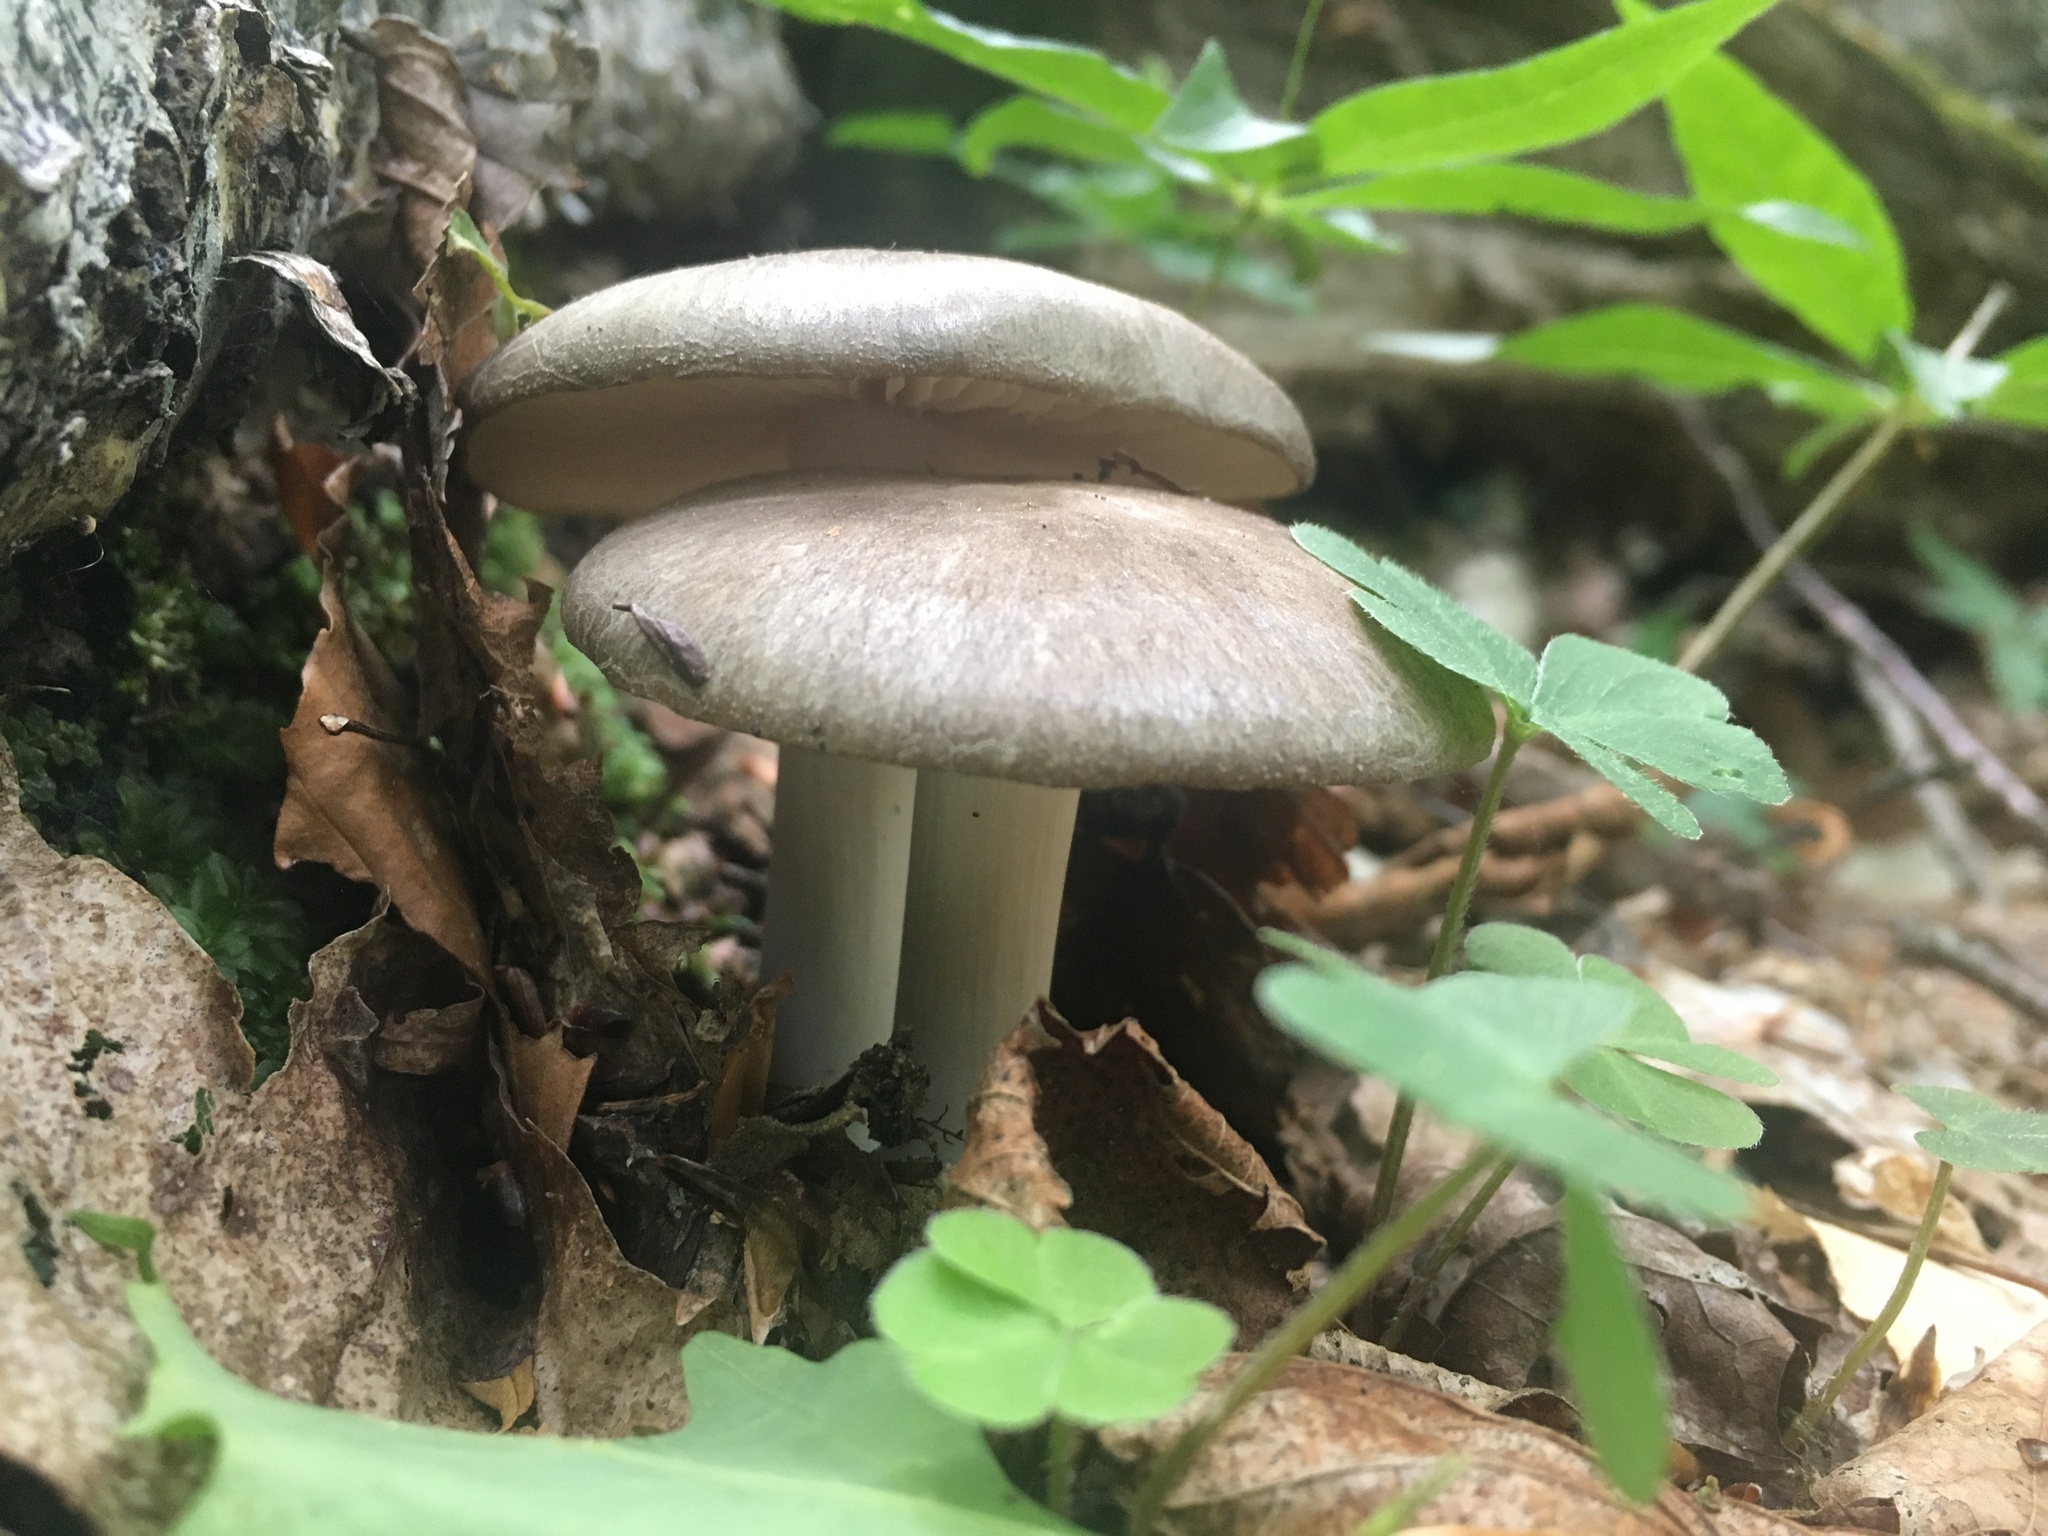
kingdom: Fungi
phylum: Basidiomycota
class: Agaricomycetes
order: Agaricales
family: Tricholomataceae
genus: Megacollybia
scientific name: Megacollybia rodmanii
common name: Eastern american platterful mushroom
